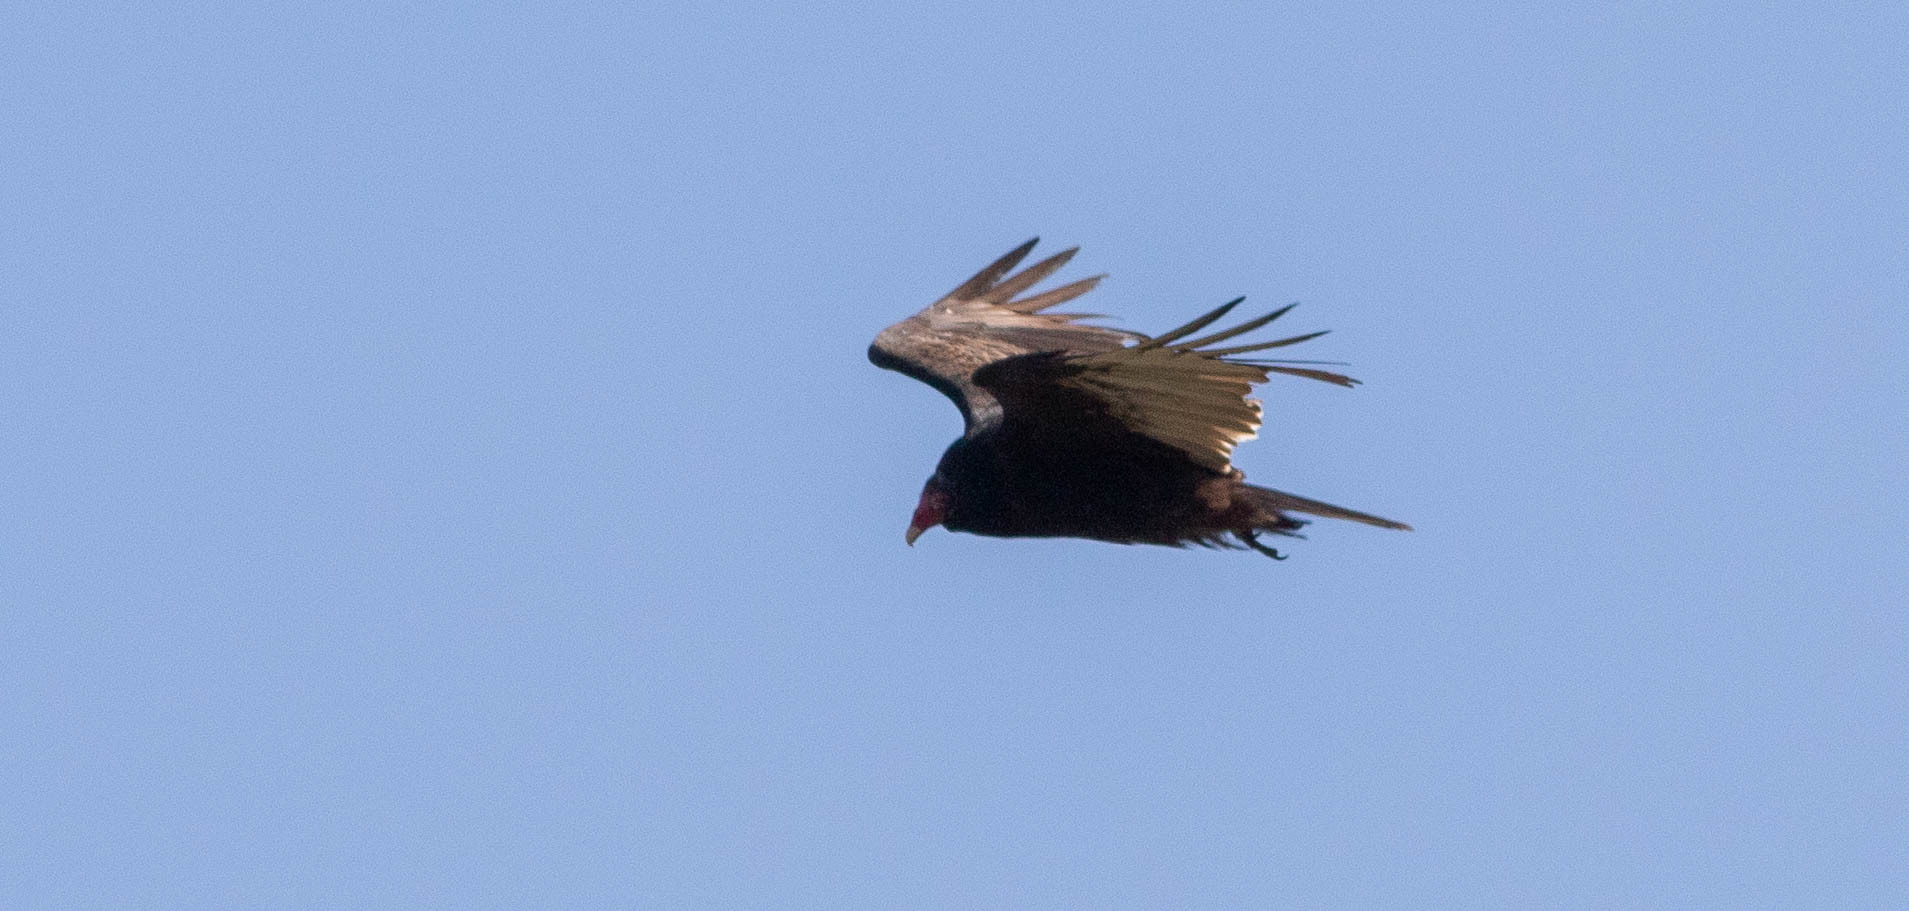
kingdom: Animalia
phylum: Chordata
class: Aves
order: Accipitriformes
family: Cathartidae
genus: Cathartes
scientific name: Cathartes aura
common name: Turkey vulture
